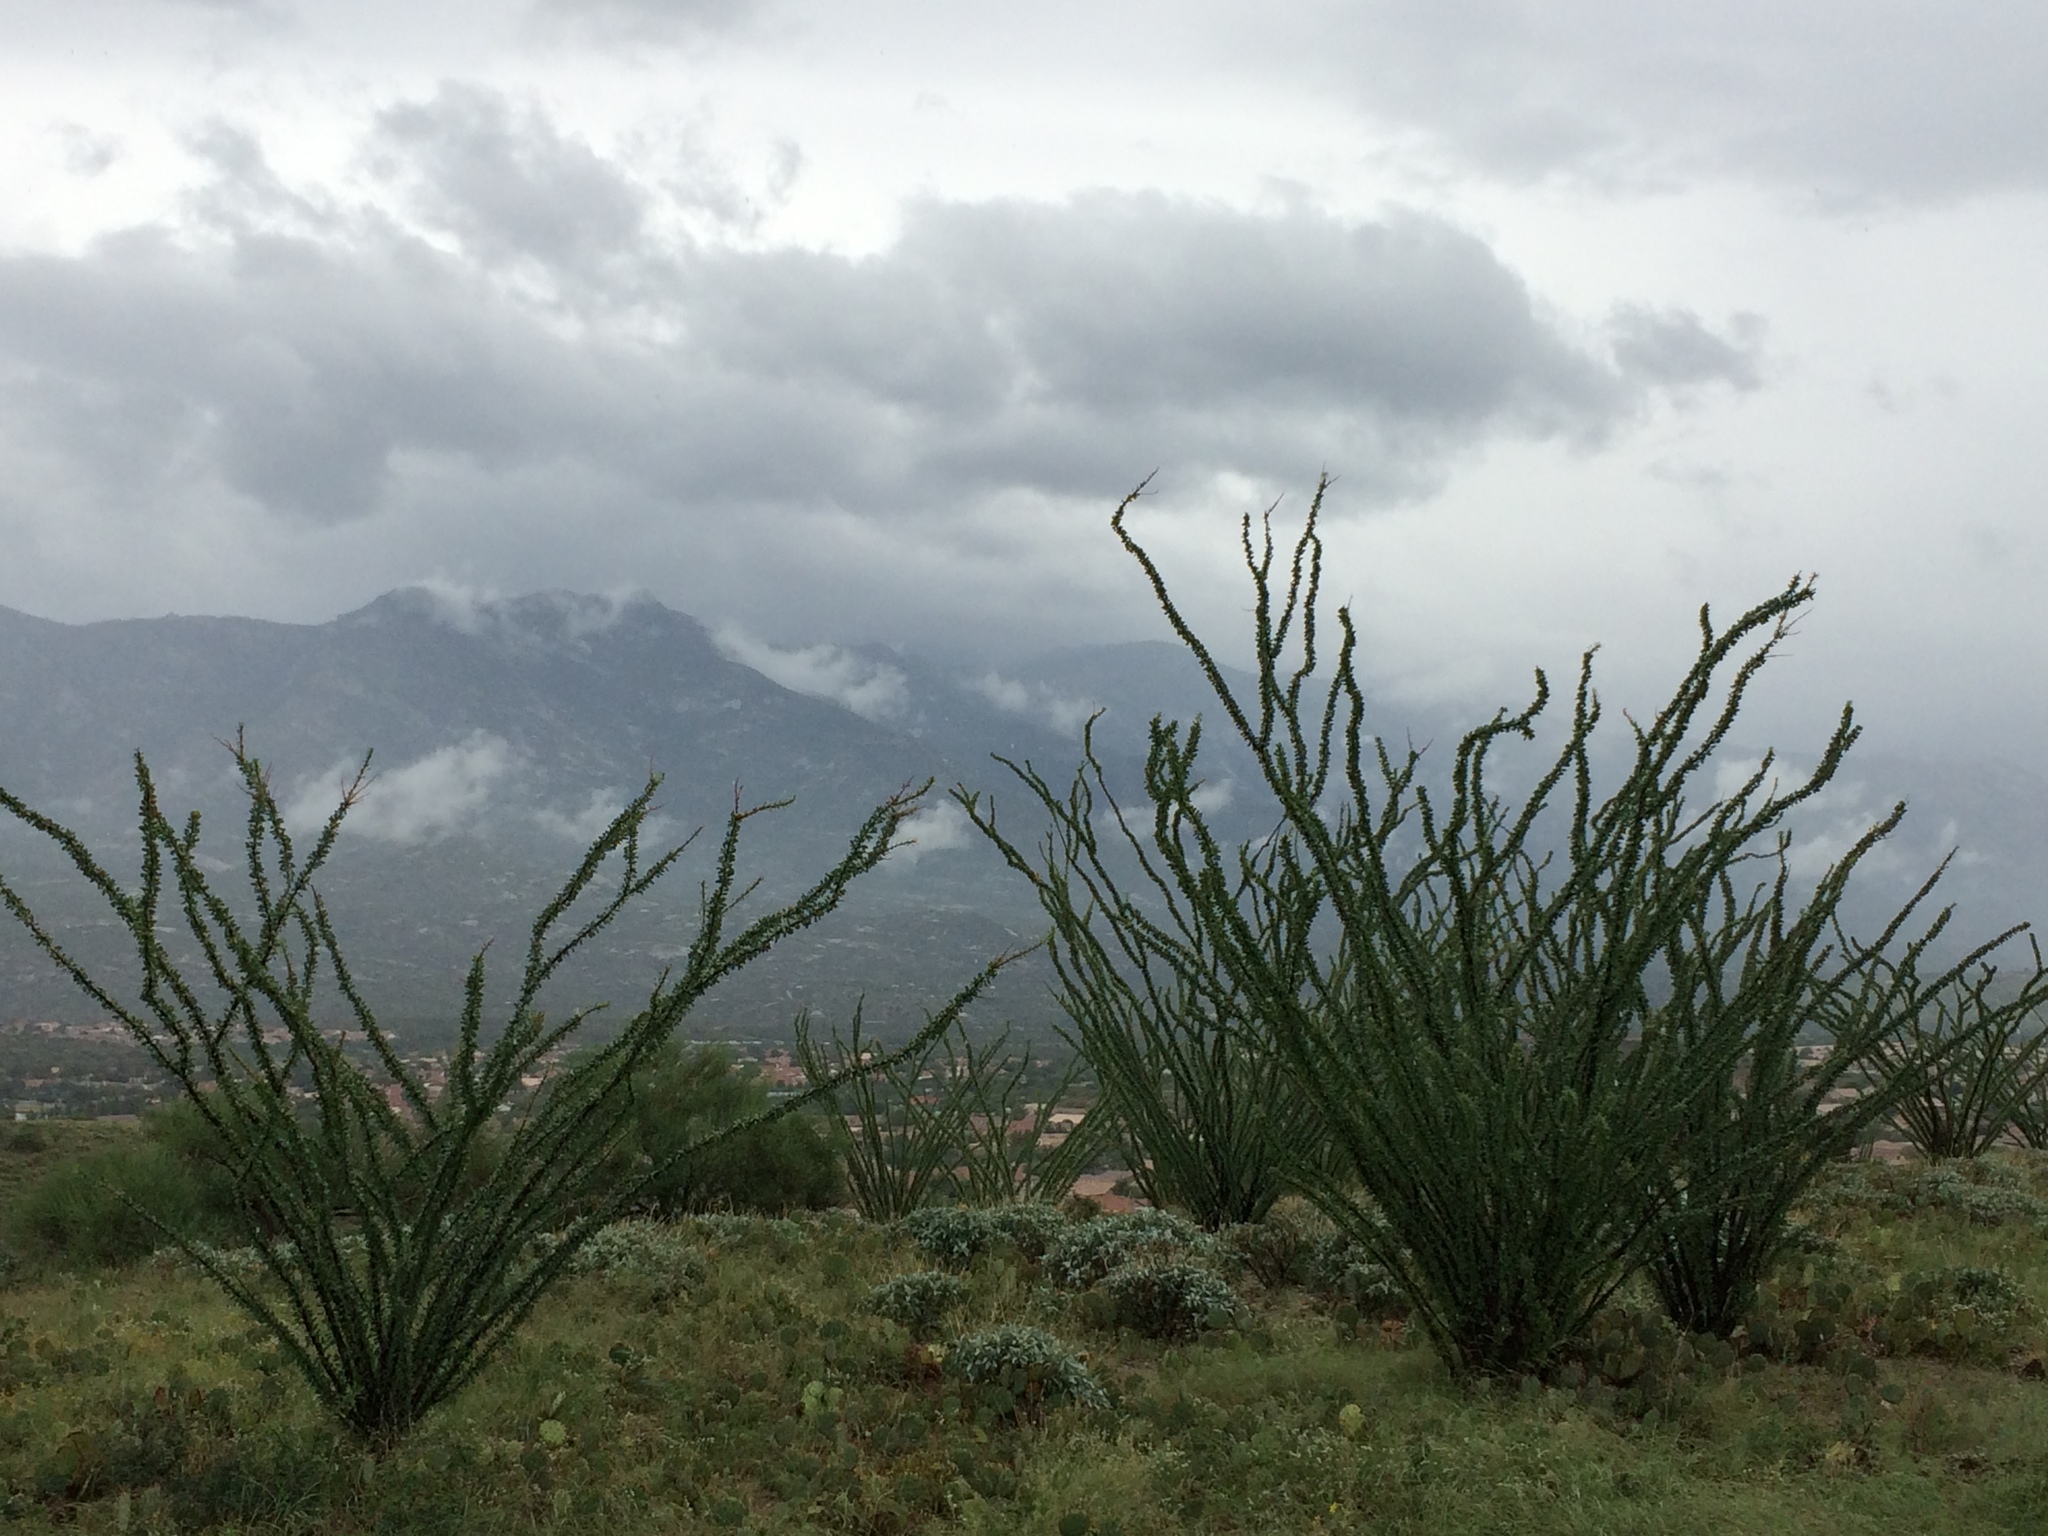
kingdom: Plantae
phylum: Tracheophyta
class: Magnoliopsida
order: Ericales
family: Fouquieriaceae
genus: Fouquieria
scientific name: Fouquieria splendens
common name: Vine-cactus
